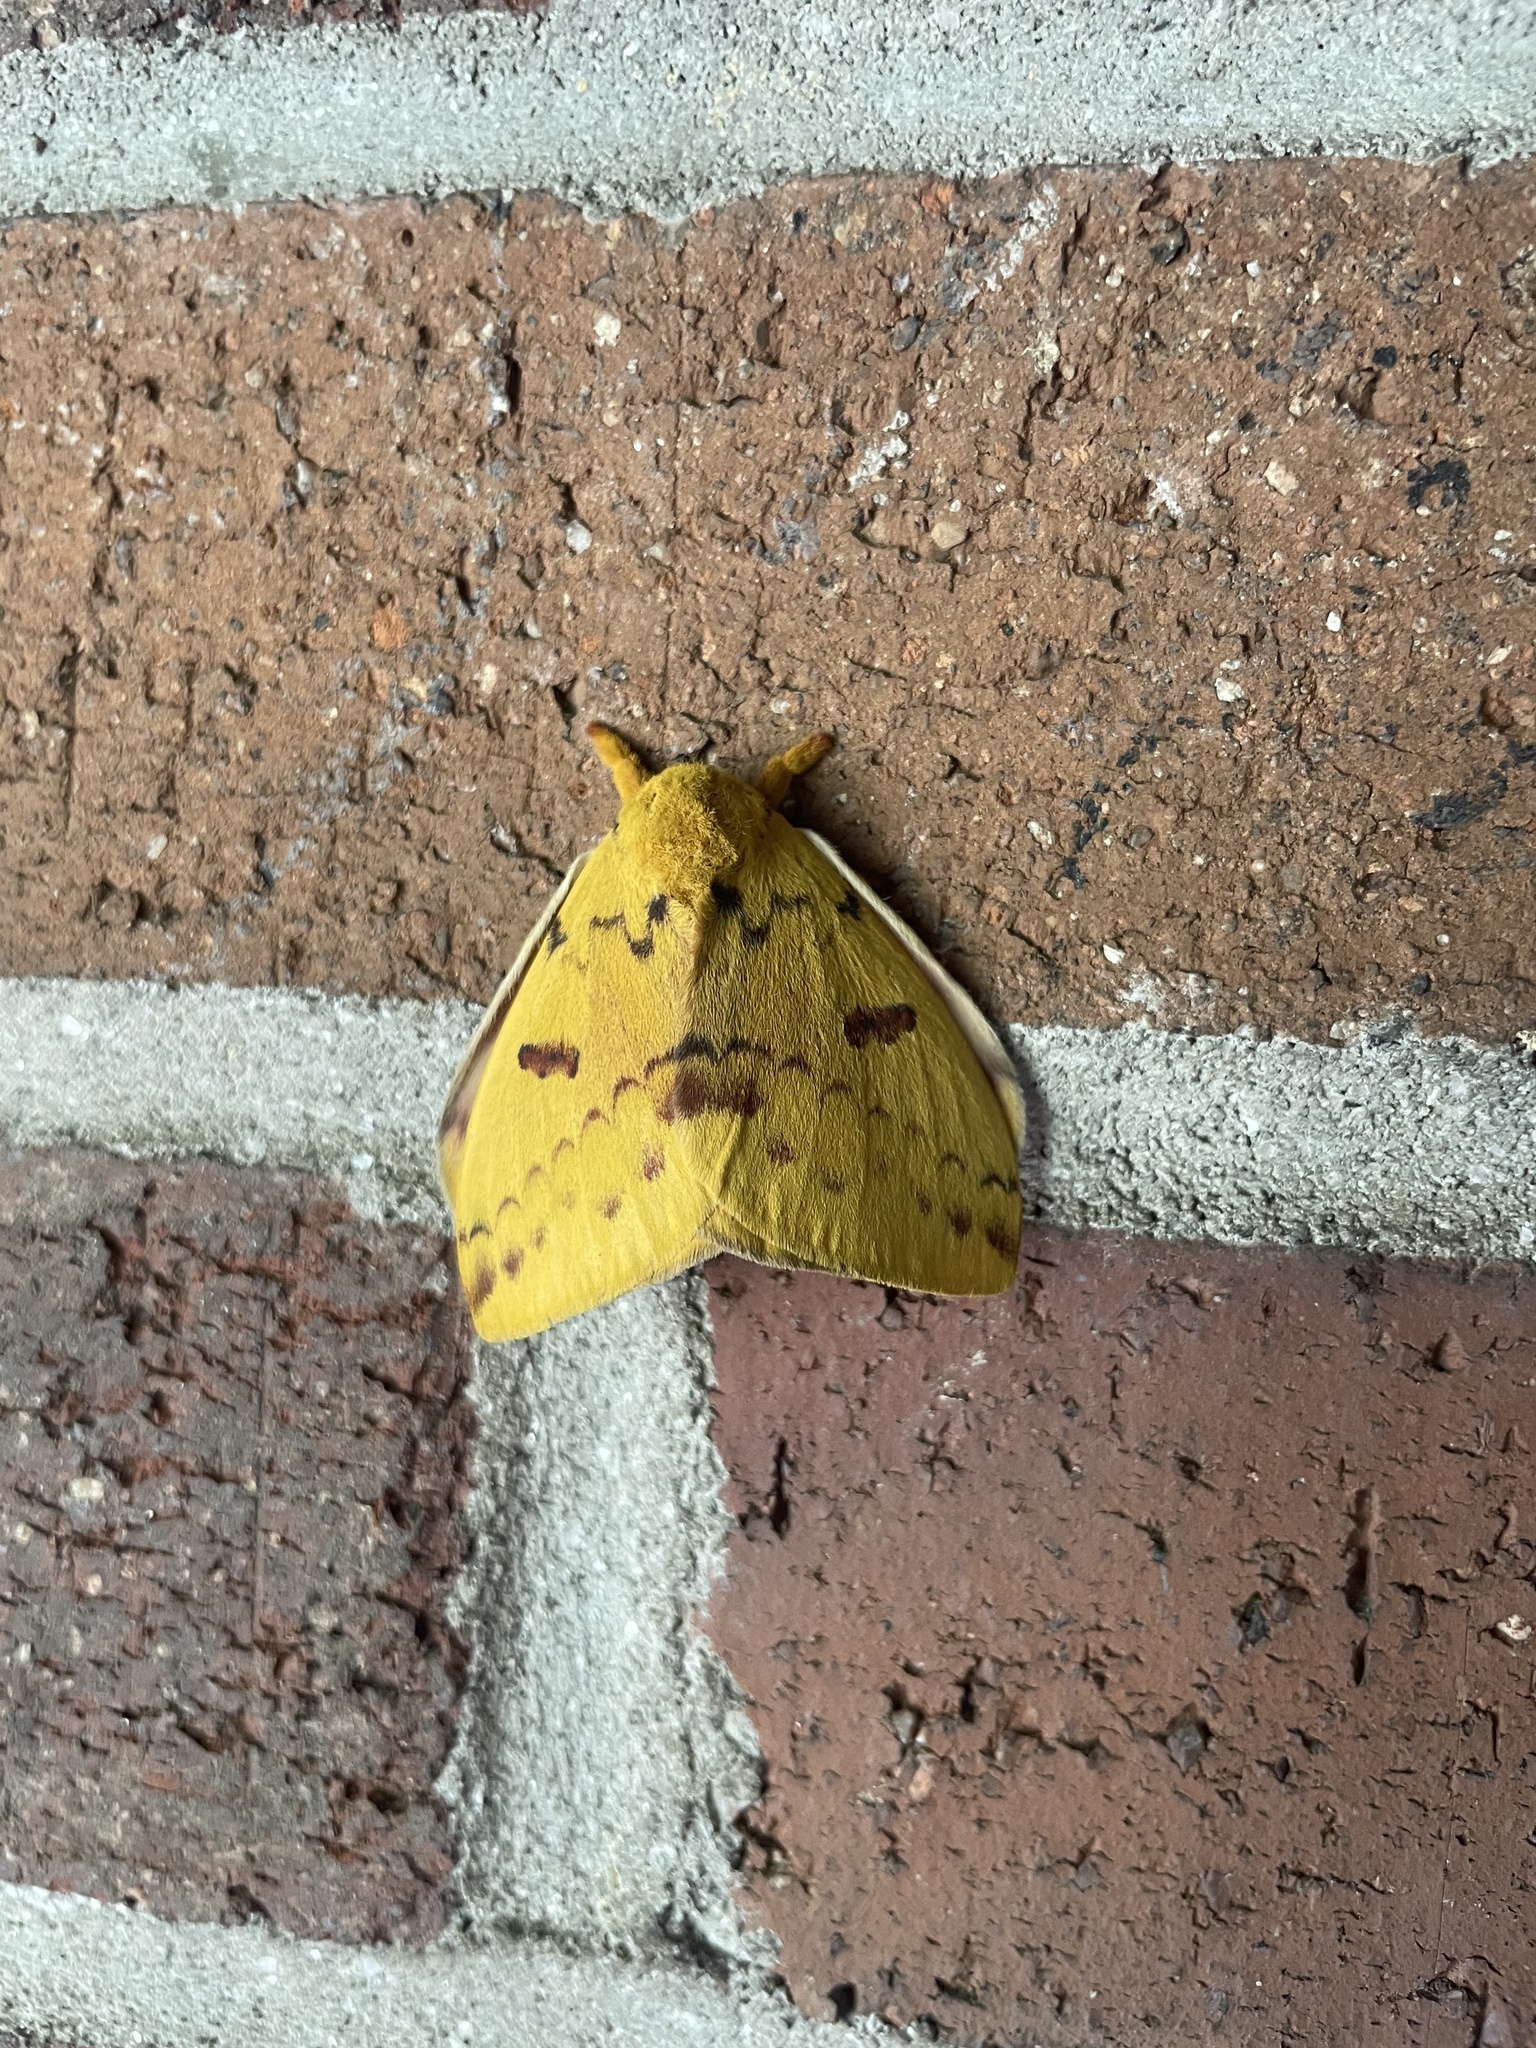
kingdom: Animalia
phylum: Arthropoda
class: Insecta
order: Lepidoptera
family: Saturniidae
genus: Automeris
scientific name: Automeris io
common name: Io moth
